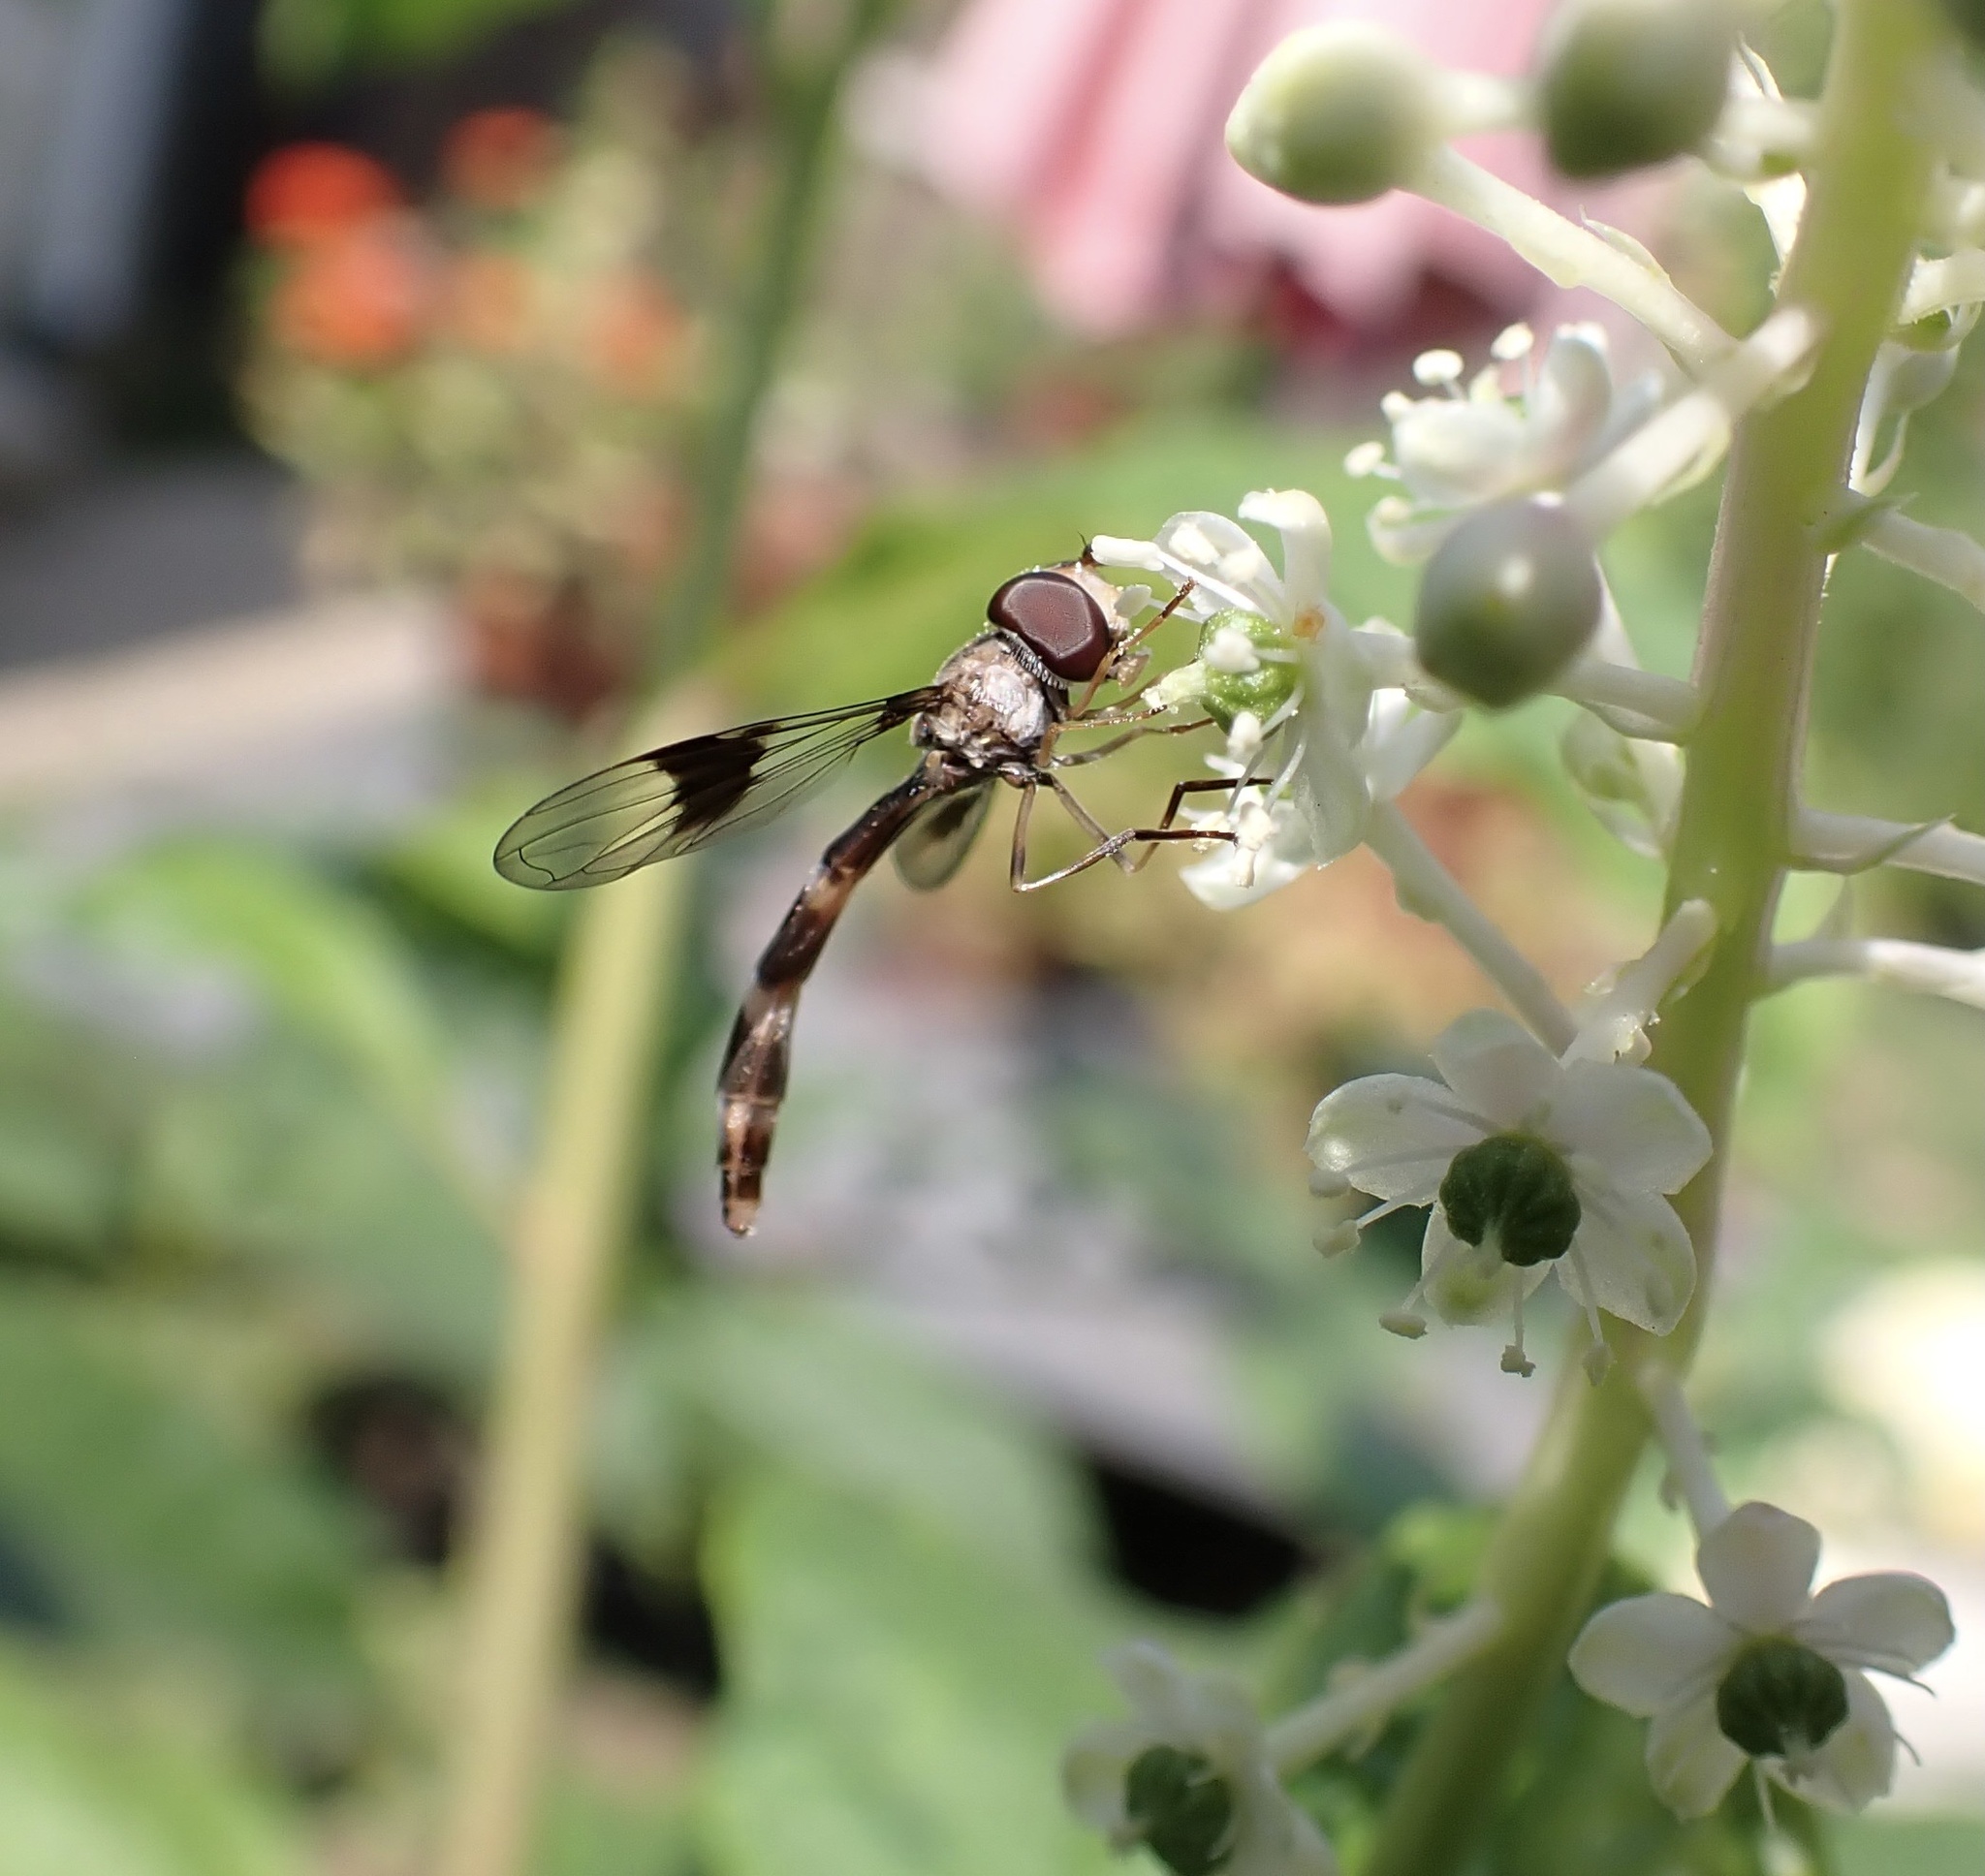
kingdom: Animalia
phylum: Arthropoda
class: Insecta
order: Diptera
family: Syrphidae
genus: Hypocritanus
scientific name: Hypocritanus fascipennis
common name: Eastern band-winged hover fly
